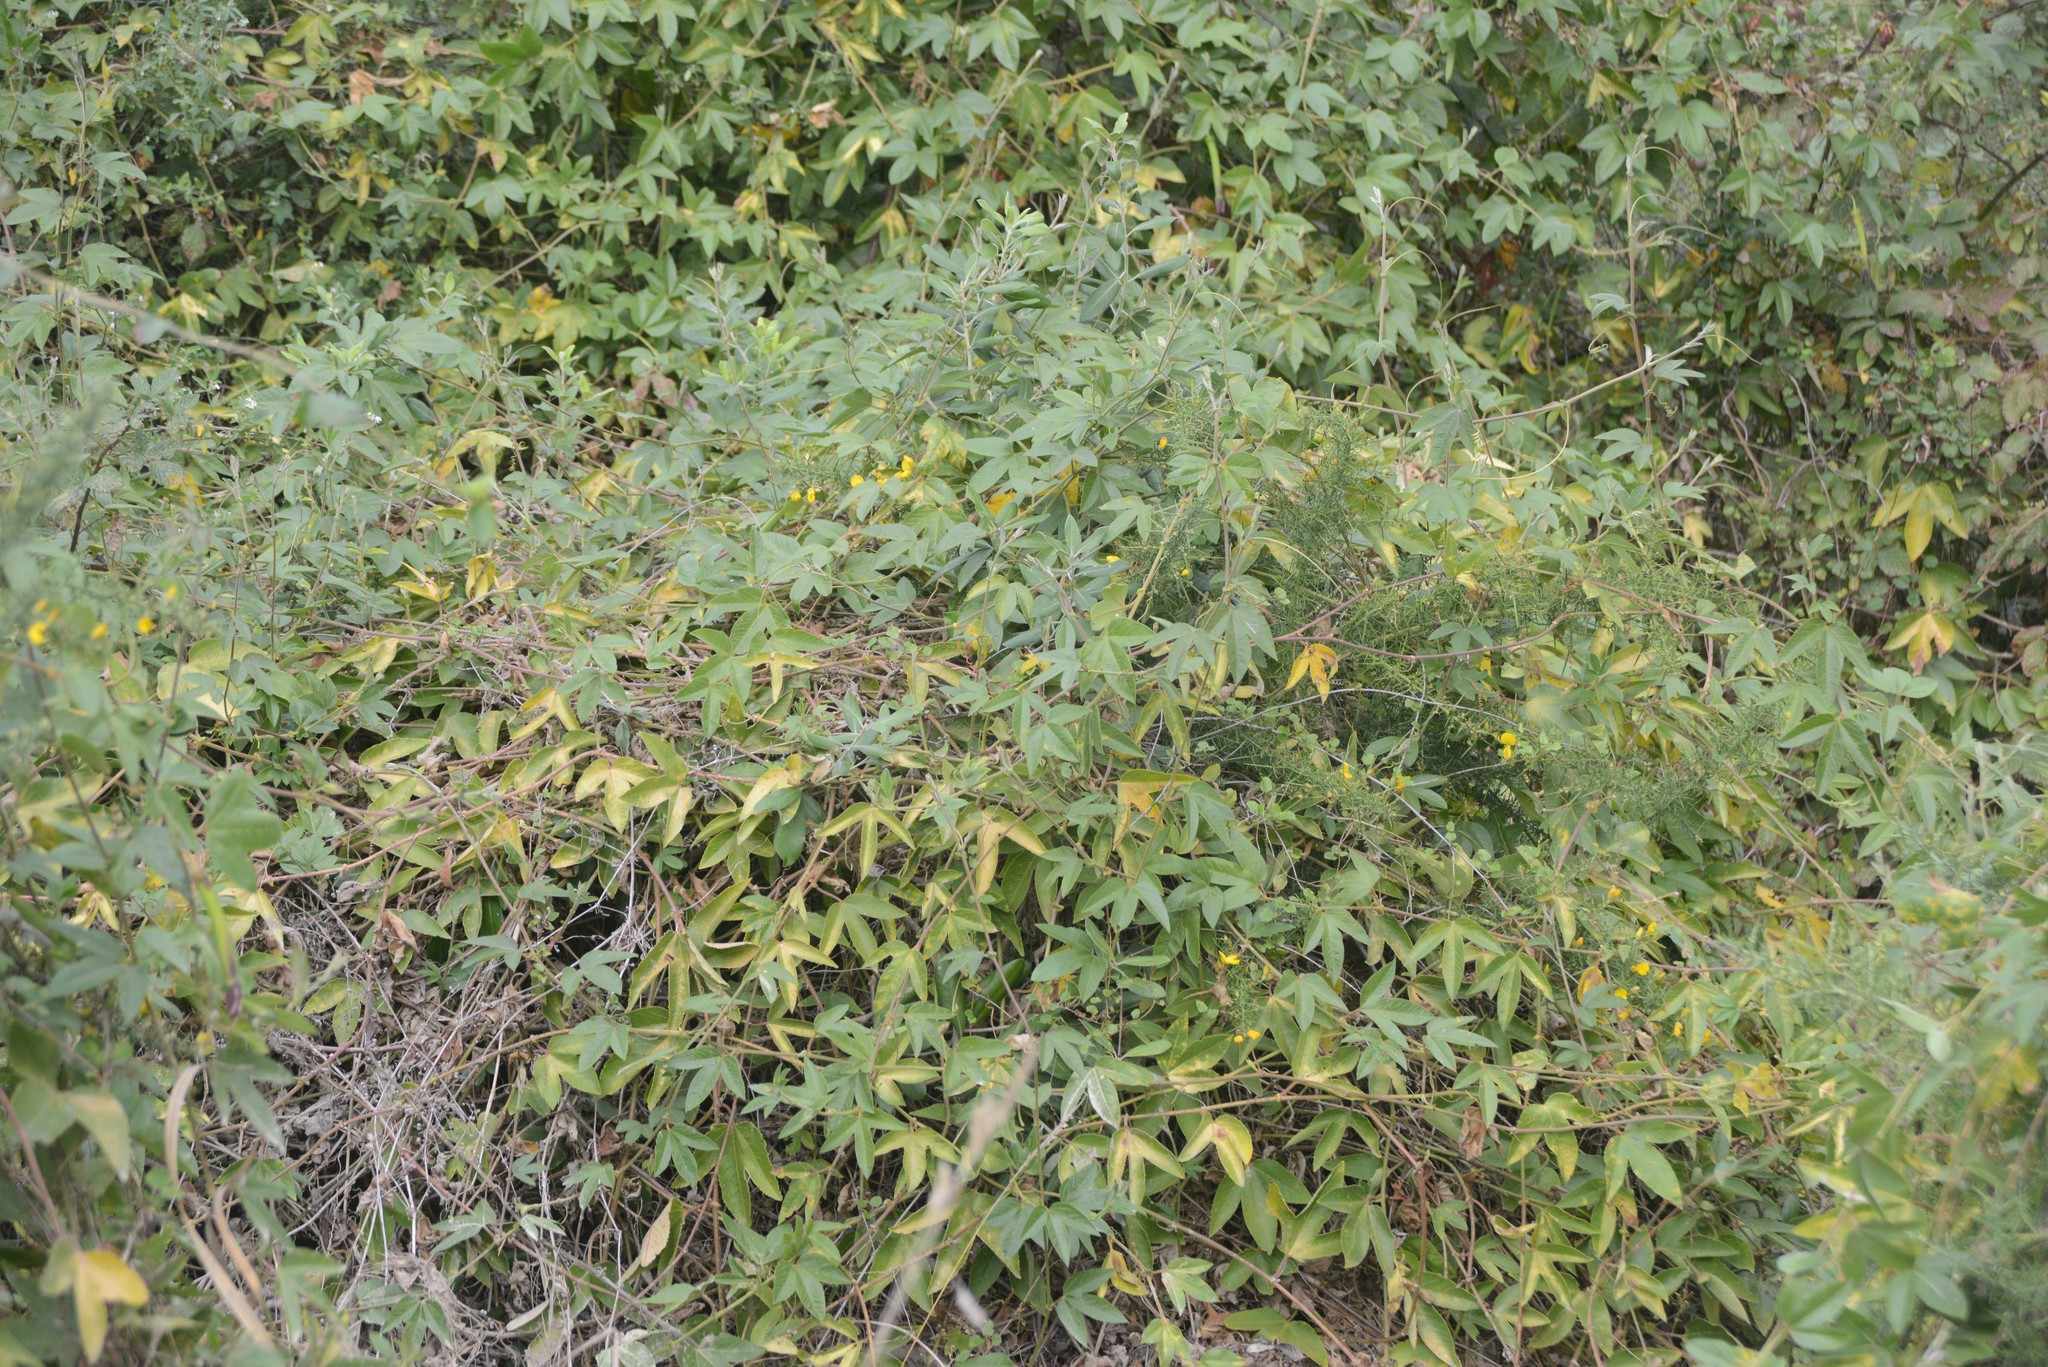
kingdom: Plantae
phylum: Tracheophyta
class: Magnoliopsida
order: Malpighiales
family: Passifloraceae
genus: Passiflora
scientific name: Passiflora tripartita
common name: Banana poka
